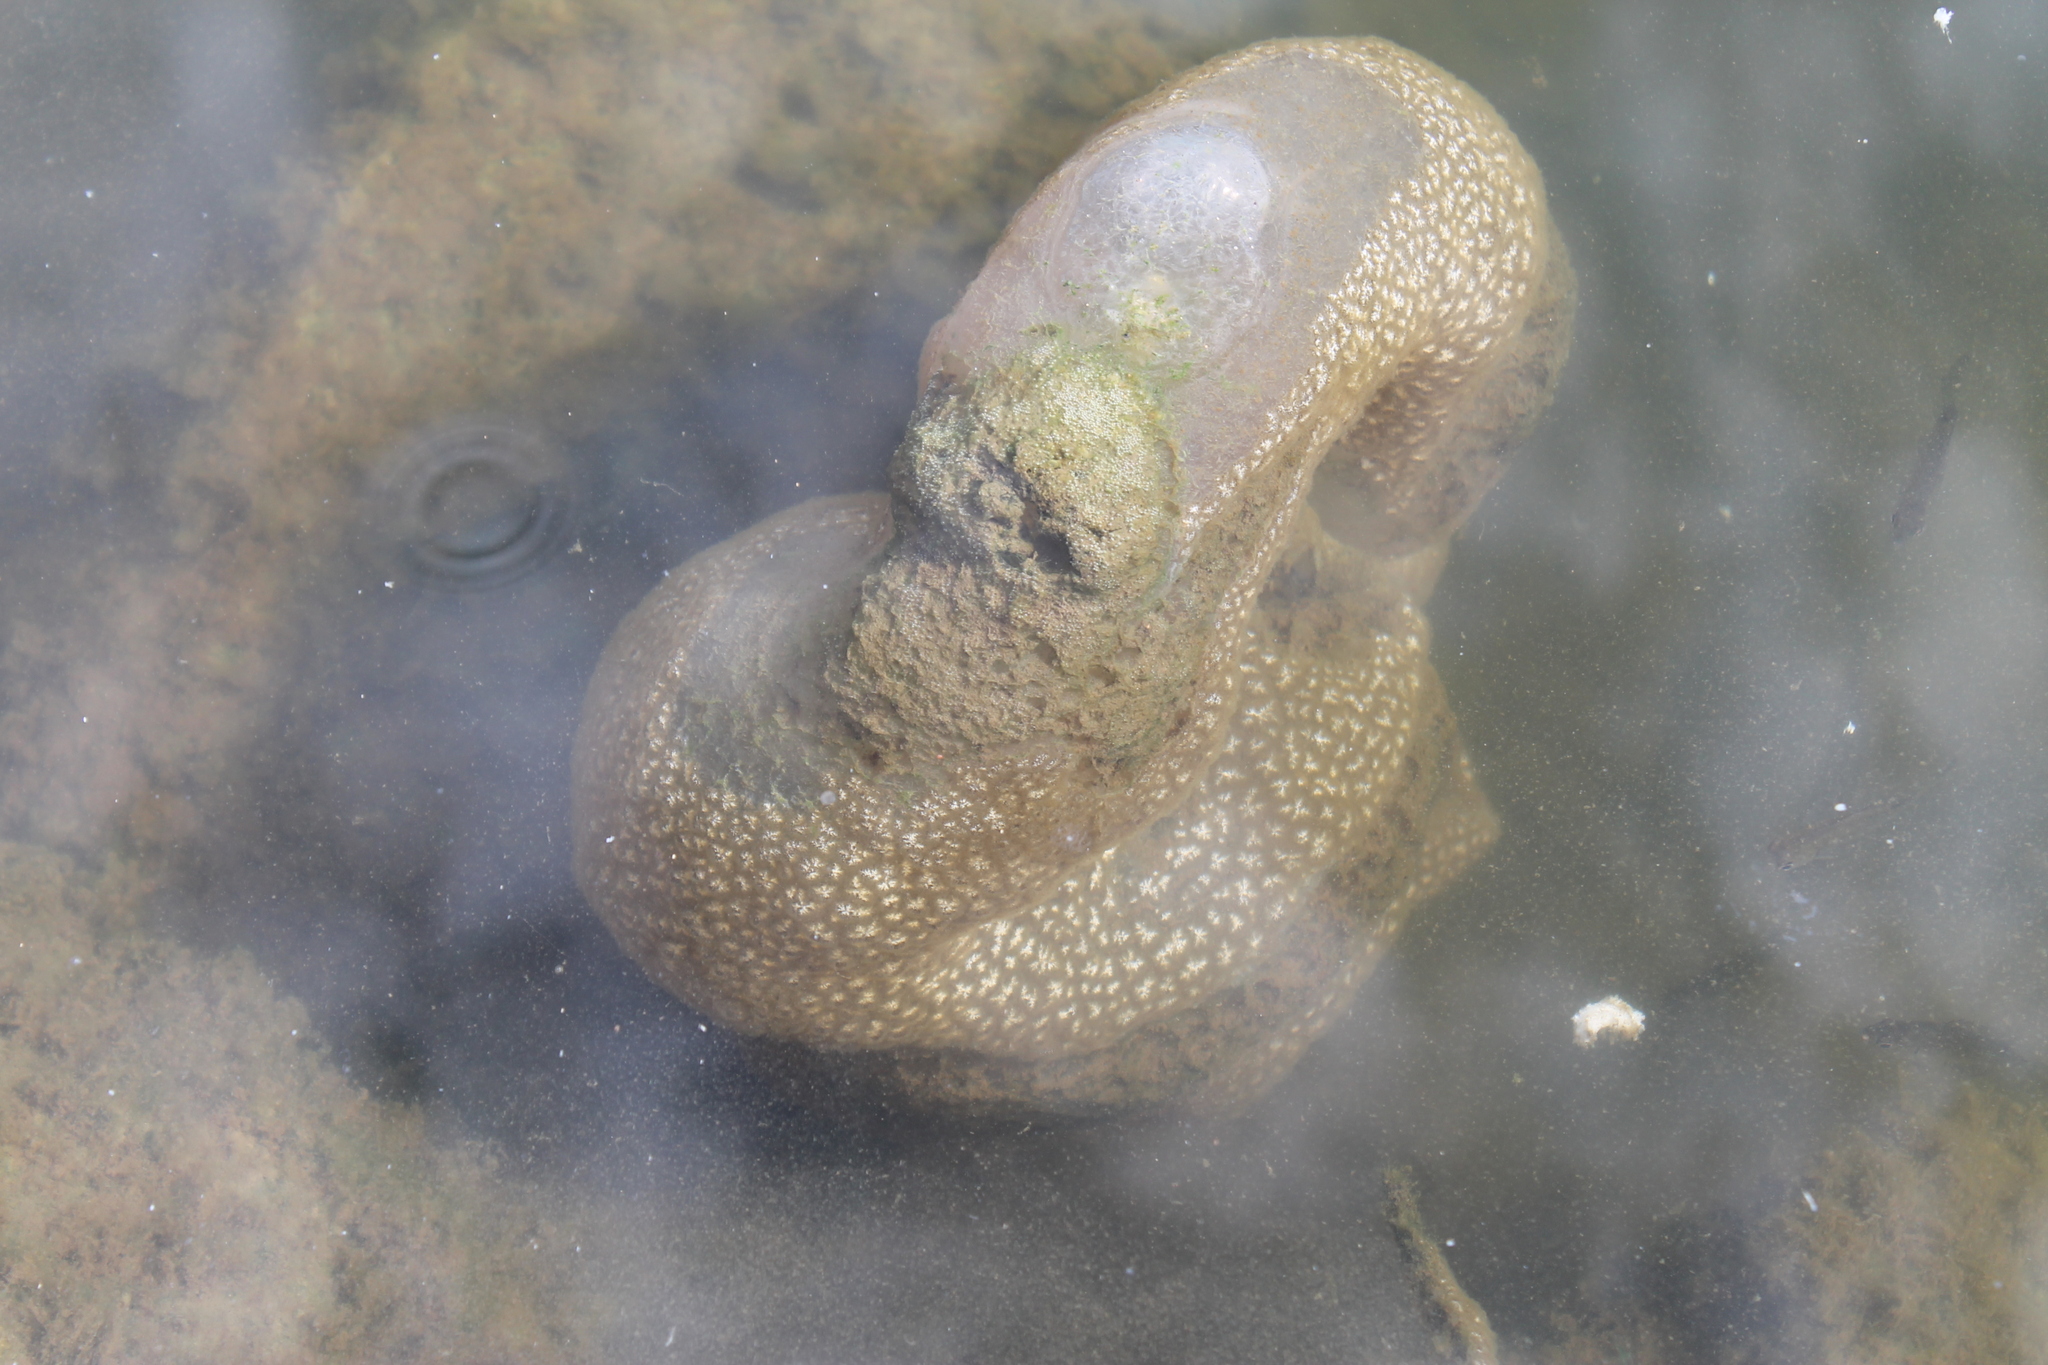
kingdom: Animalia
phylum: Bryozoa
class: Phylactolaemata
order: Plumatellida
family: Pectinatellidae
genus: Pectinatella
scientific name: Pectinatella magnifica
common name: Magnificent bryozoan
